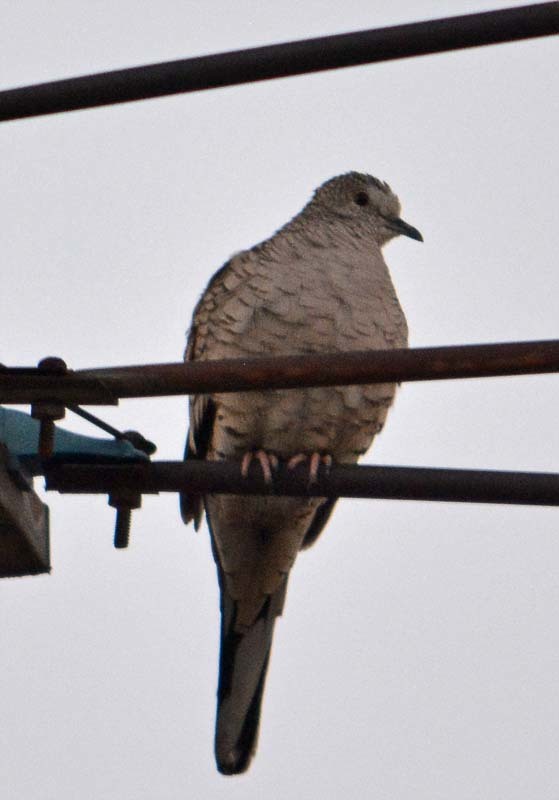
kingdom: Animalia
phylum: Chordata
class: Aves
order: Columbiformes
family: Columbidae
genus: Columbina
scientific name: Columbina inca
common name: Inca dove
